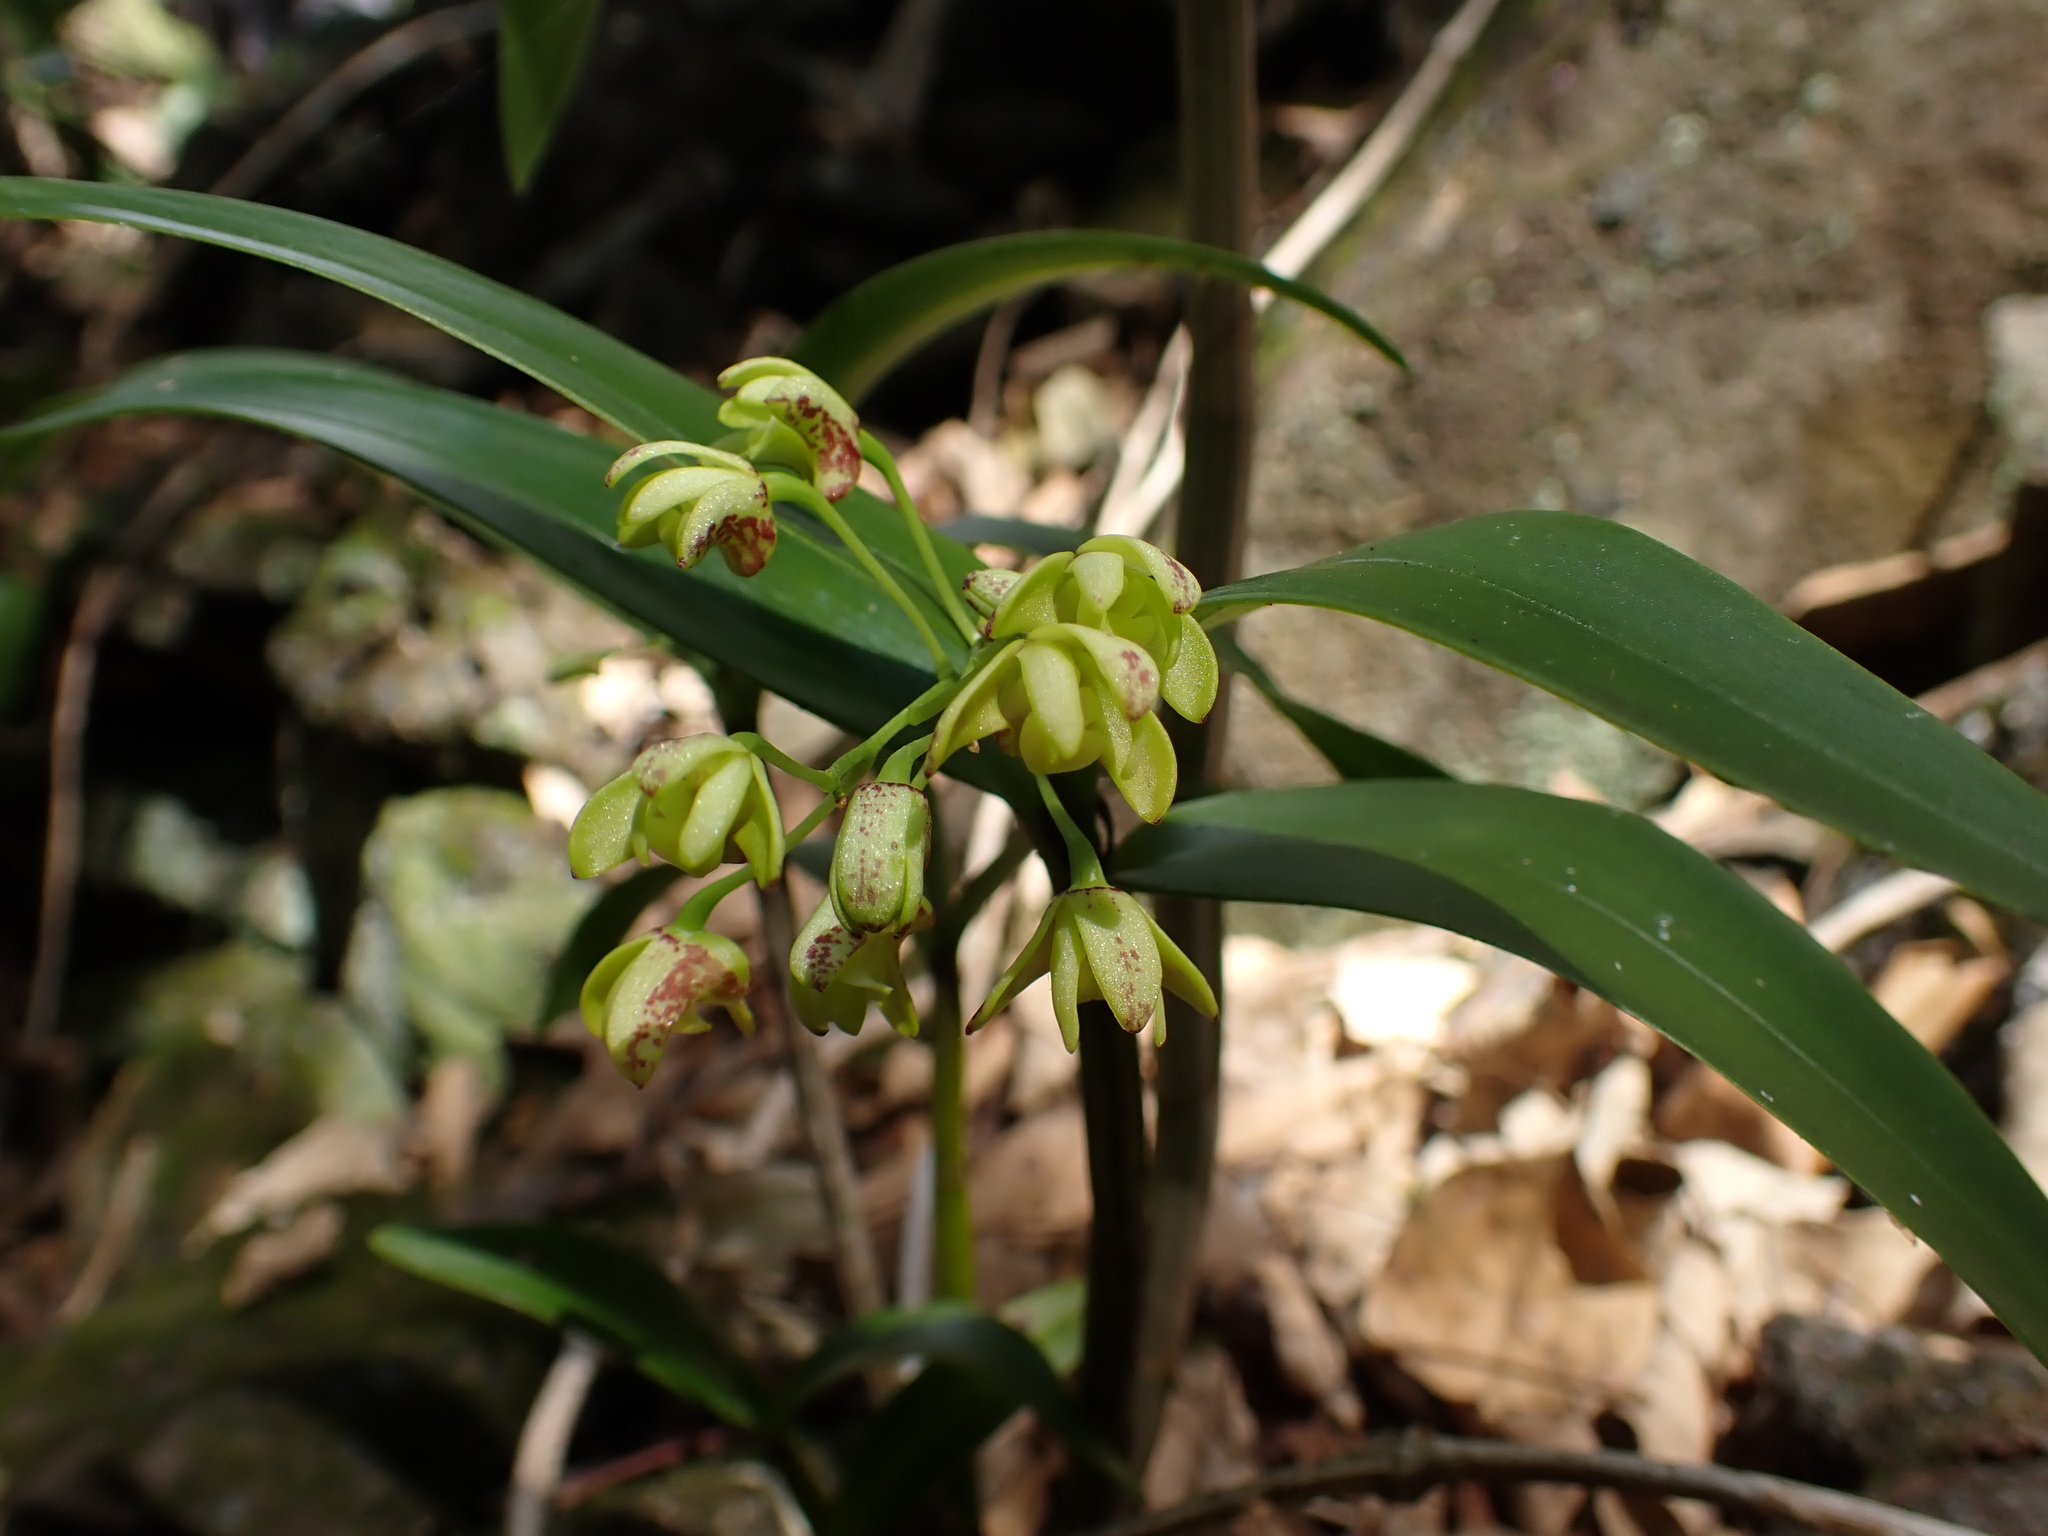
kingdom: Plantae
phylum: Tracheophyta
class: Liliopsida
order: Asparagales
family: Orchidaceae
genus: Dendrobium
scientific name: Dendrobium gracilicaule
